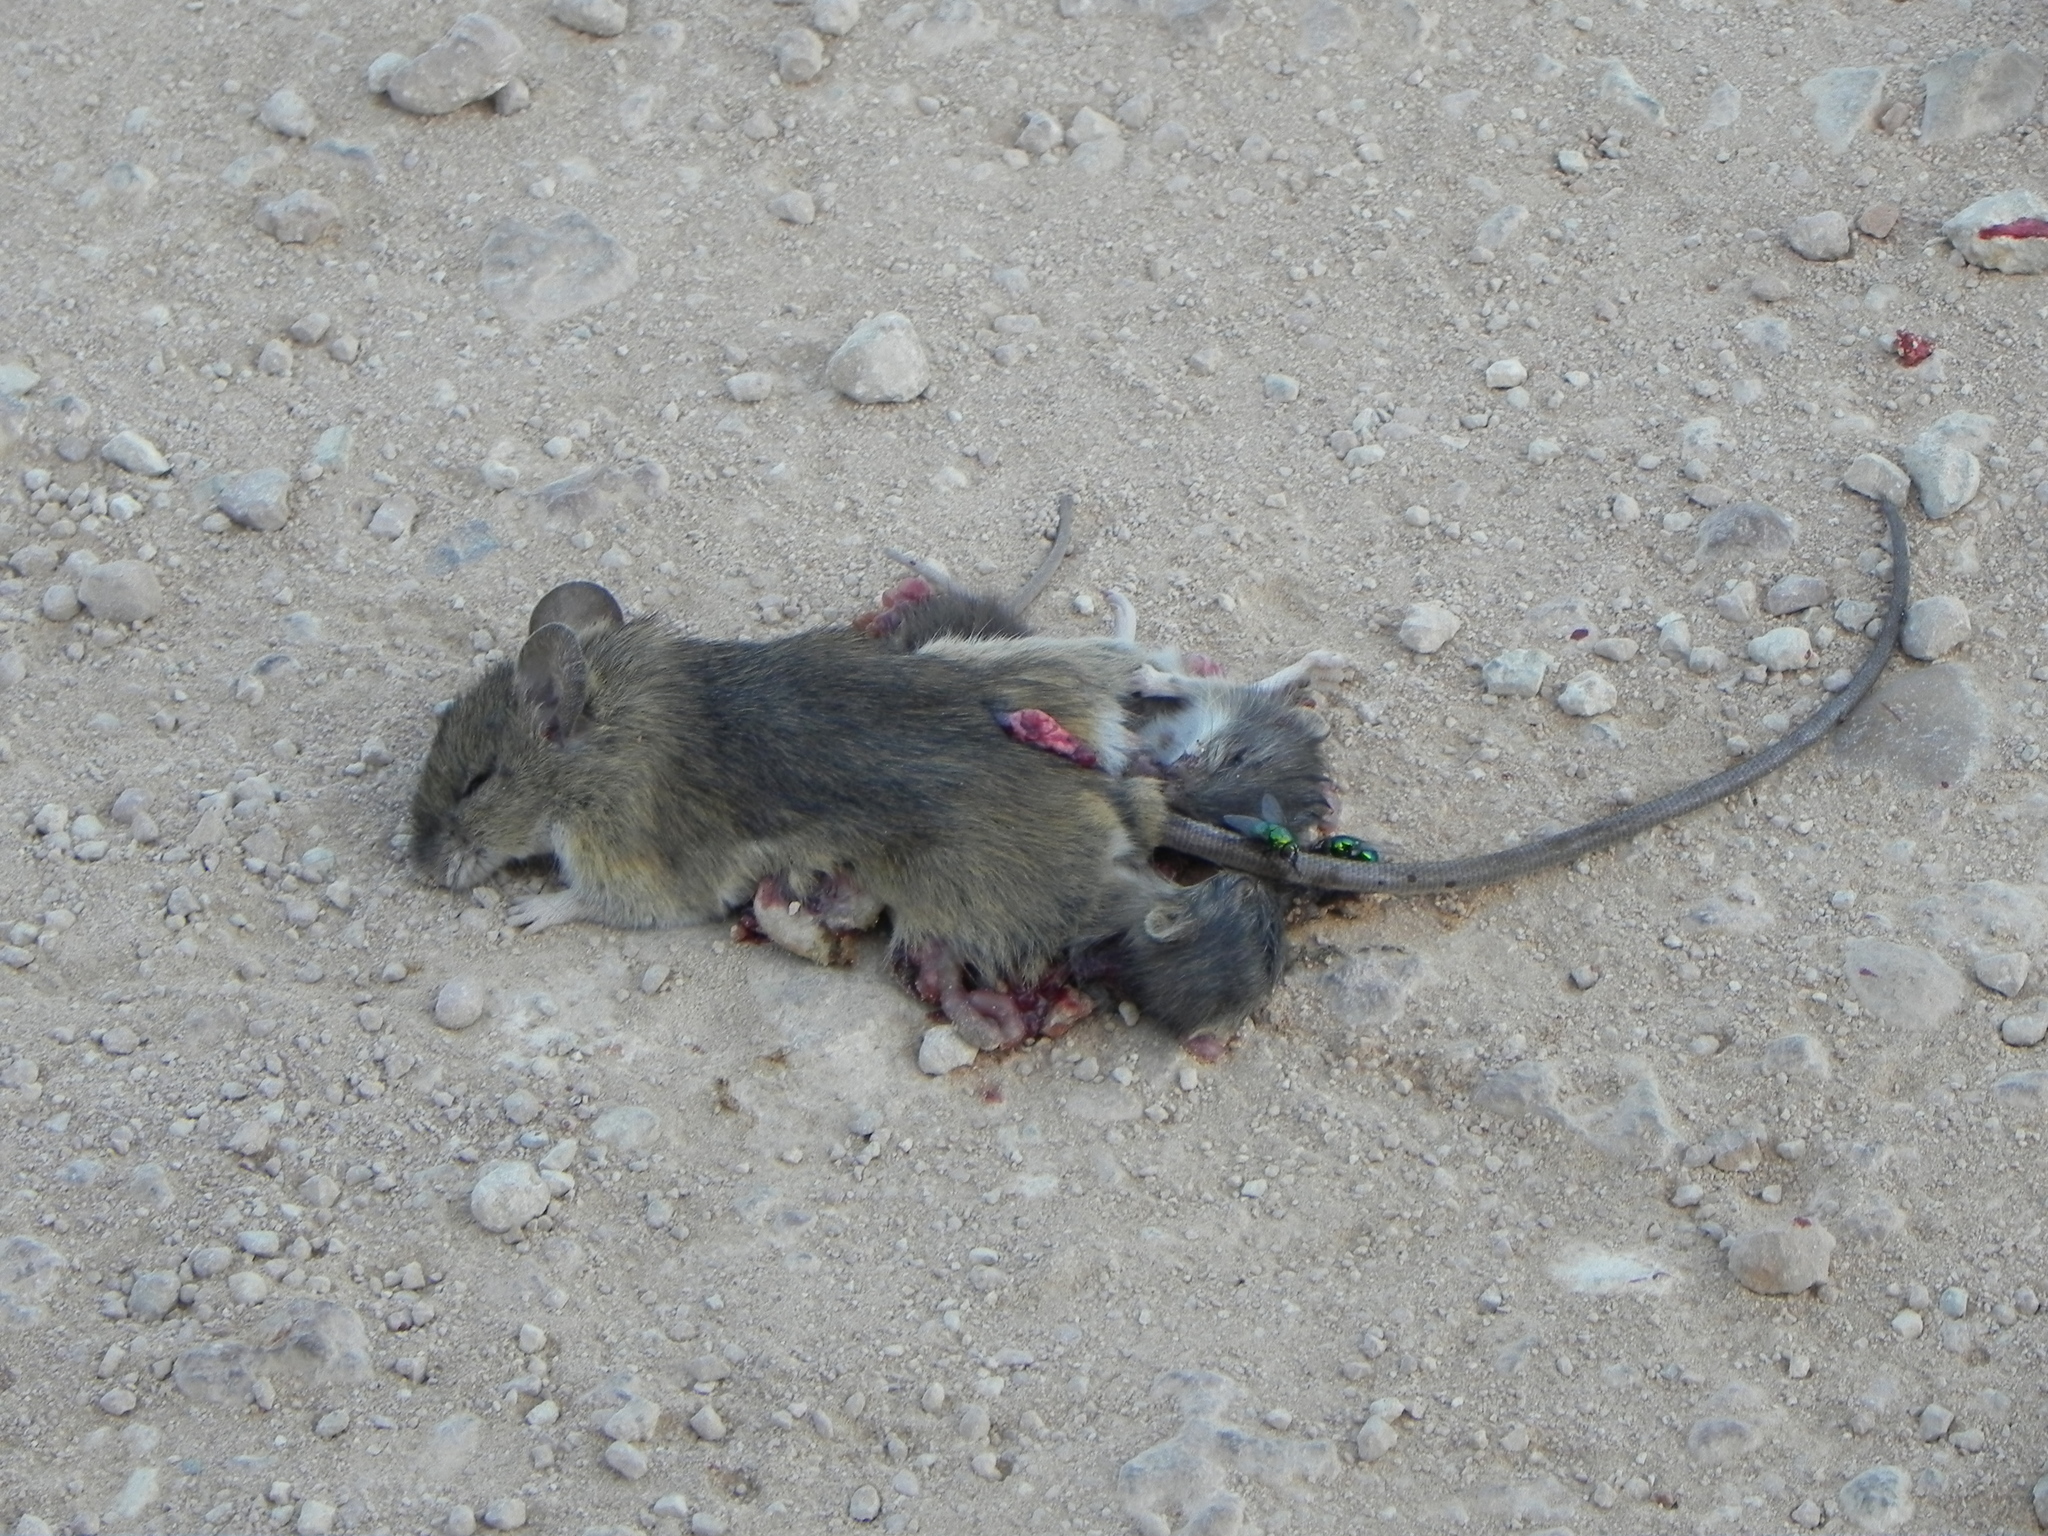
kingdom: Animalia
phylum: Chordata
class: Mammalia
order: Rodentia
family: Muridae
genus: Grammomys
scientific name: Grammomys dolichurus
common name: Common grammomys
